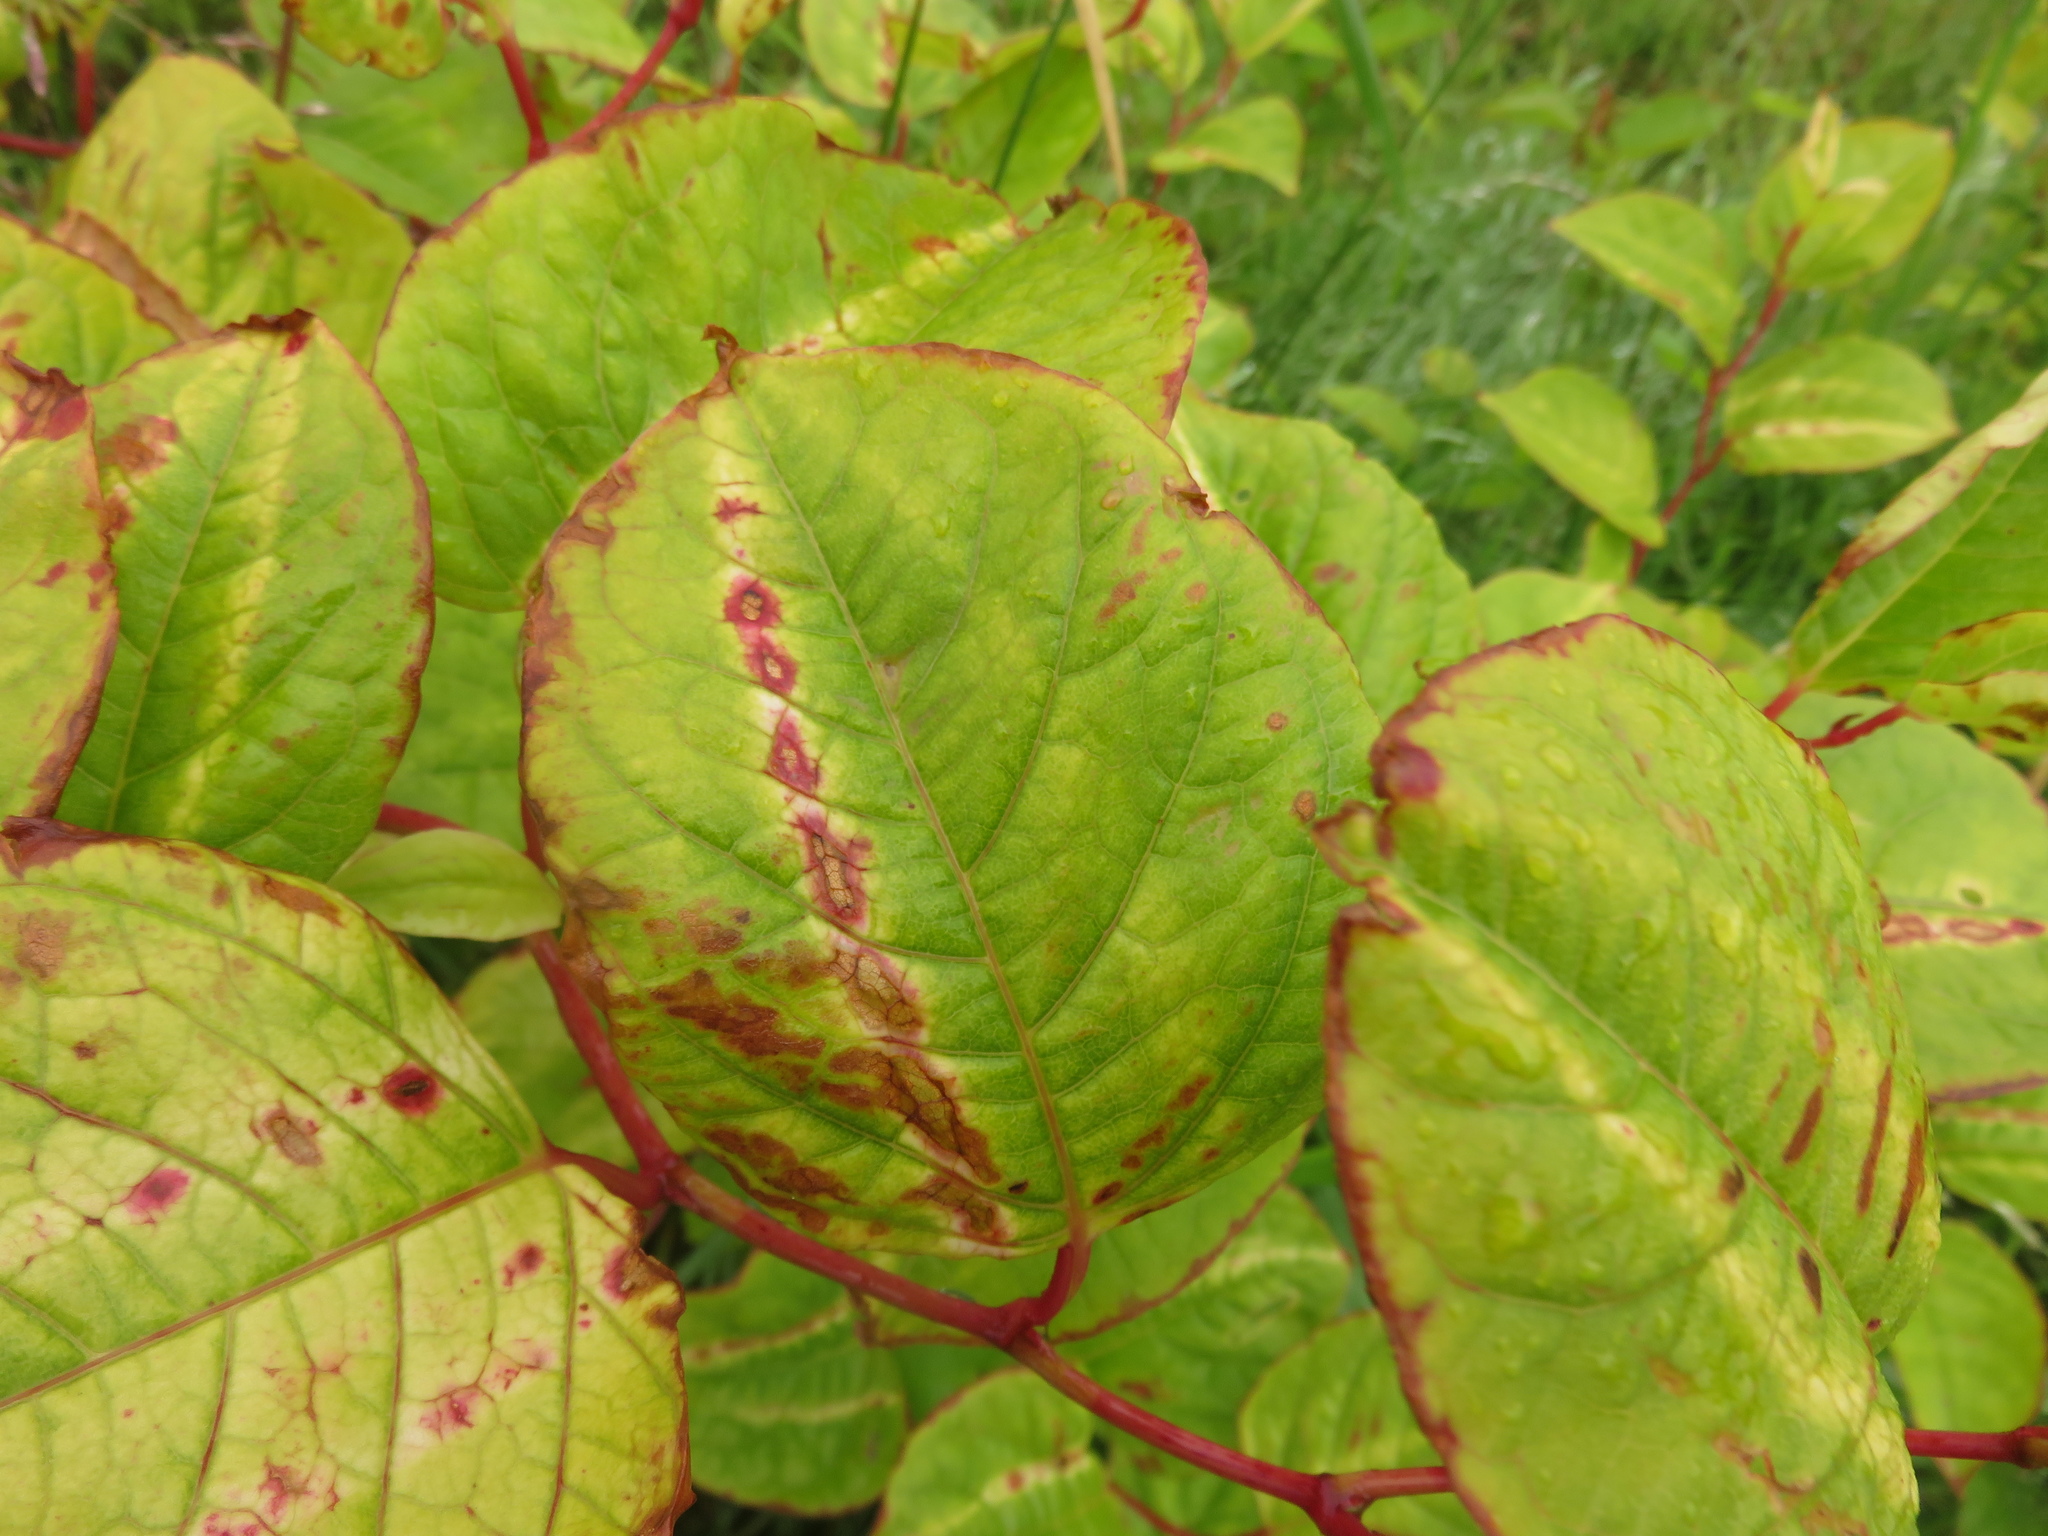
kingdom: Plantae
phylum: Tracheophyta
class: Magnoliopsida
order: Caryophyllales
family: Polygonaceae
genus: Reynoutria
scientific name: Reynoutria japonica
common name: Japanese knotweed
